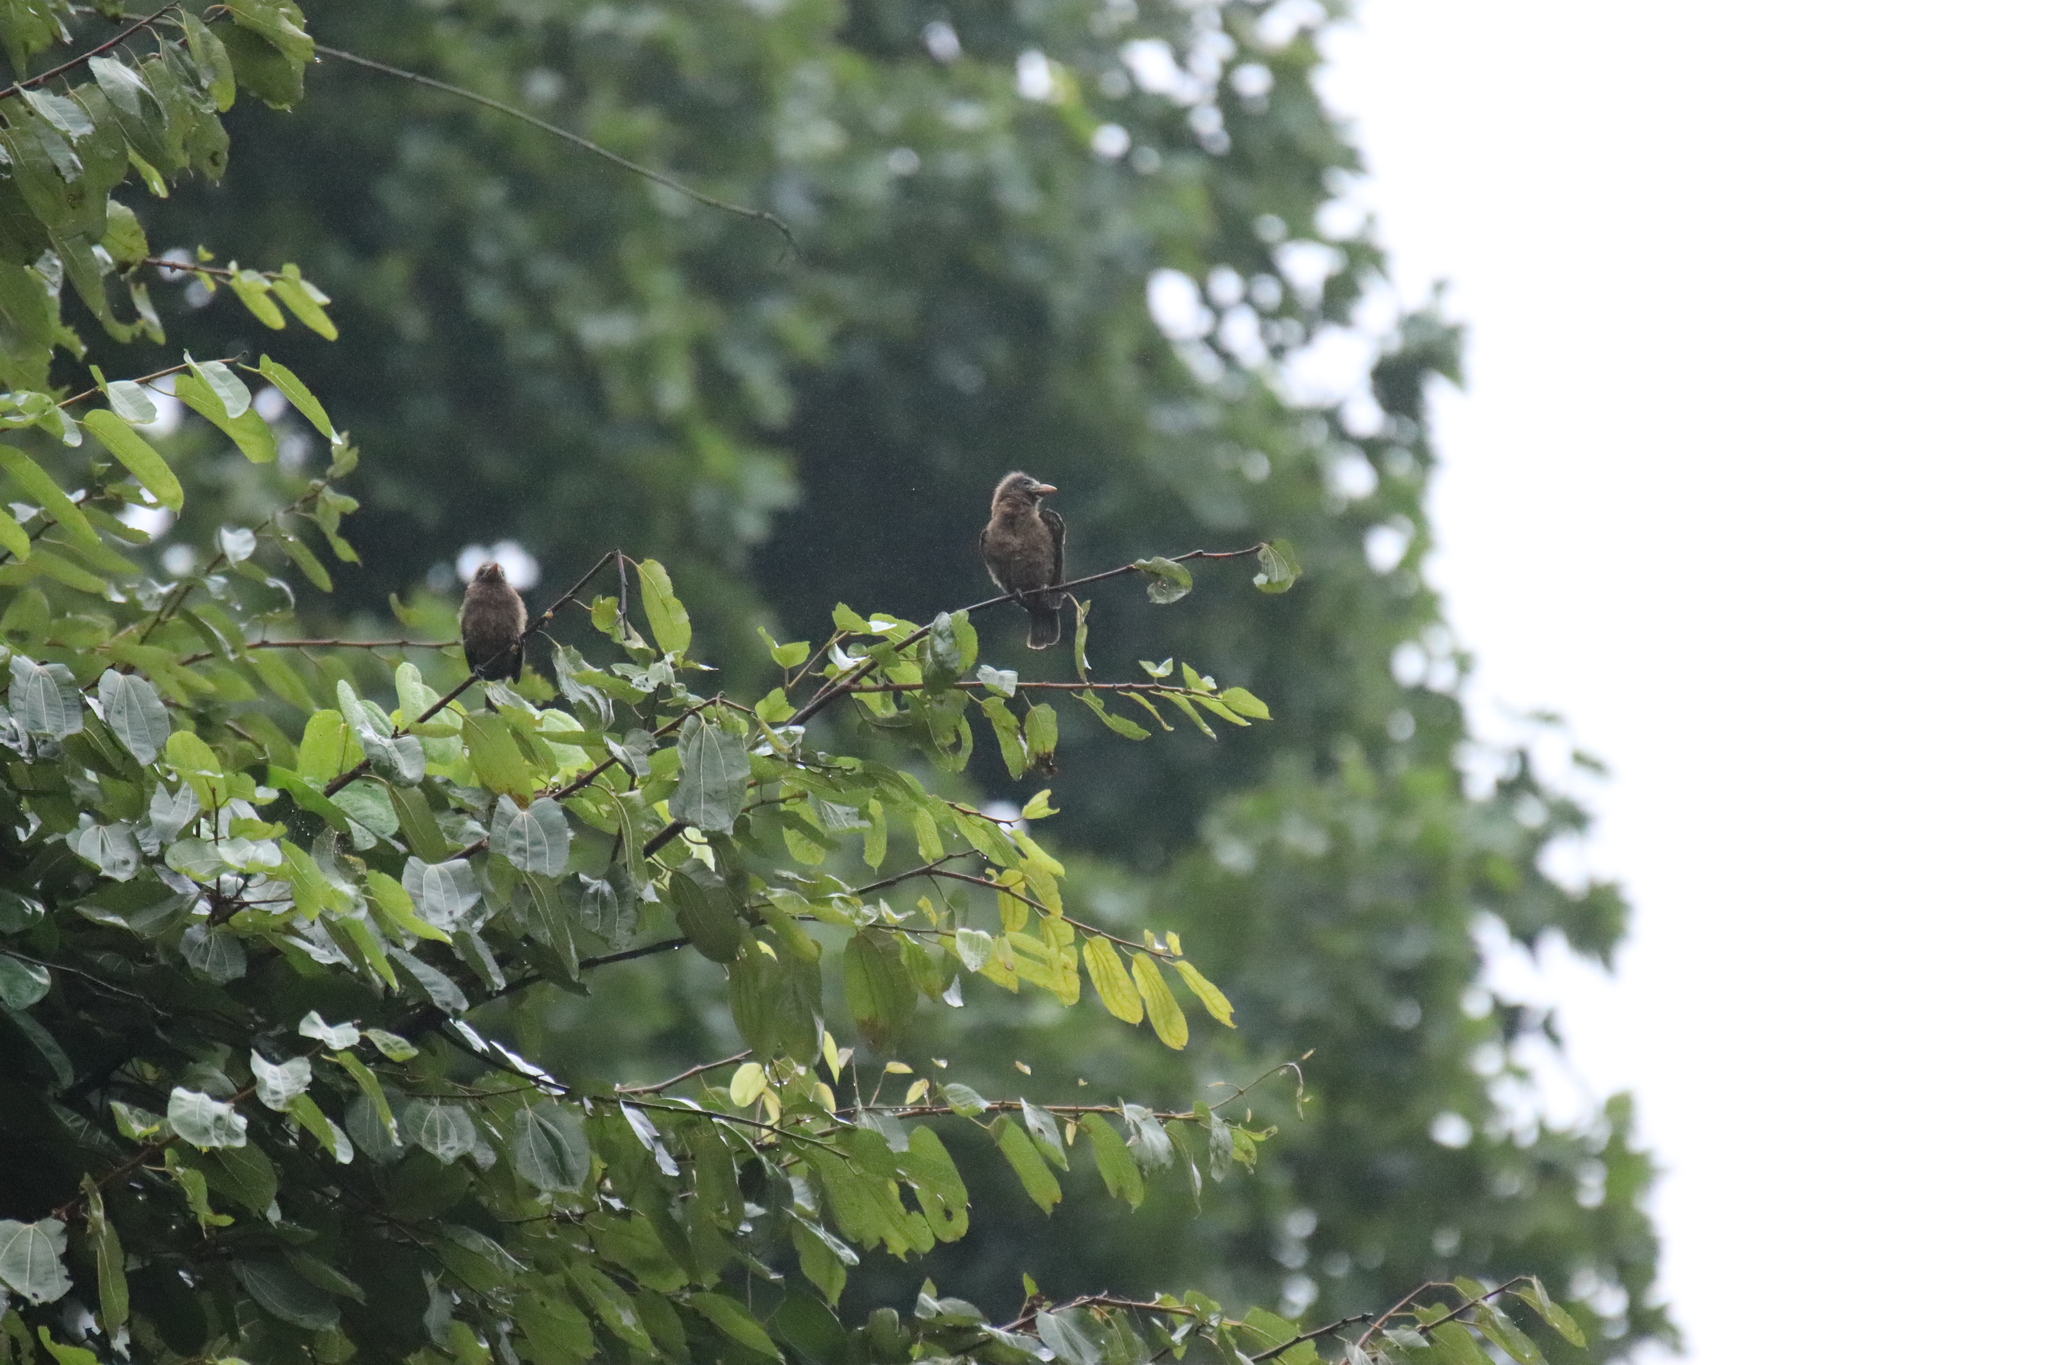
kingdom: Animalia
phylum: Chordata
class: Aves
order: Piciformes
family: Lybiidae
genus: Gymnobucco
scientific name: Gymnobucco calvus
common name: Naked-faced barbet
